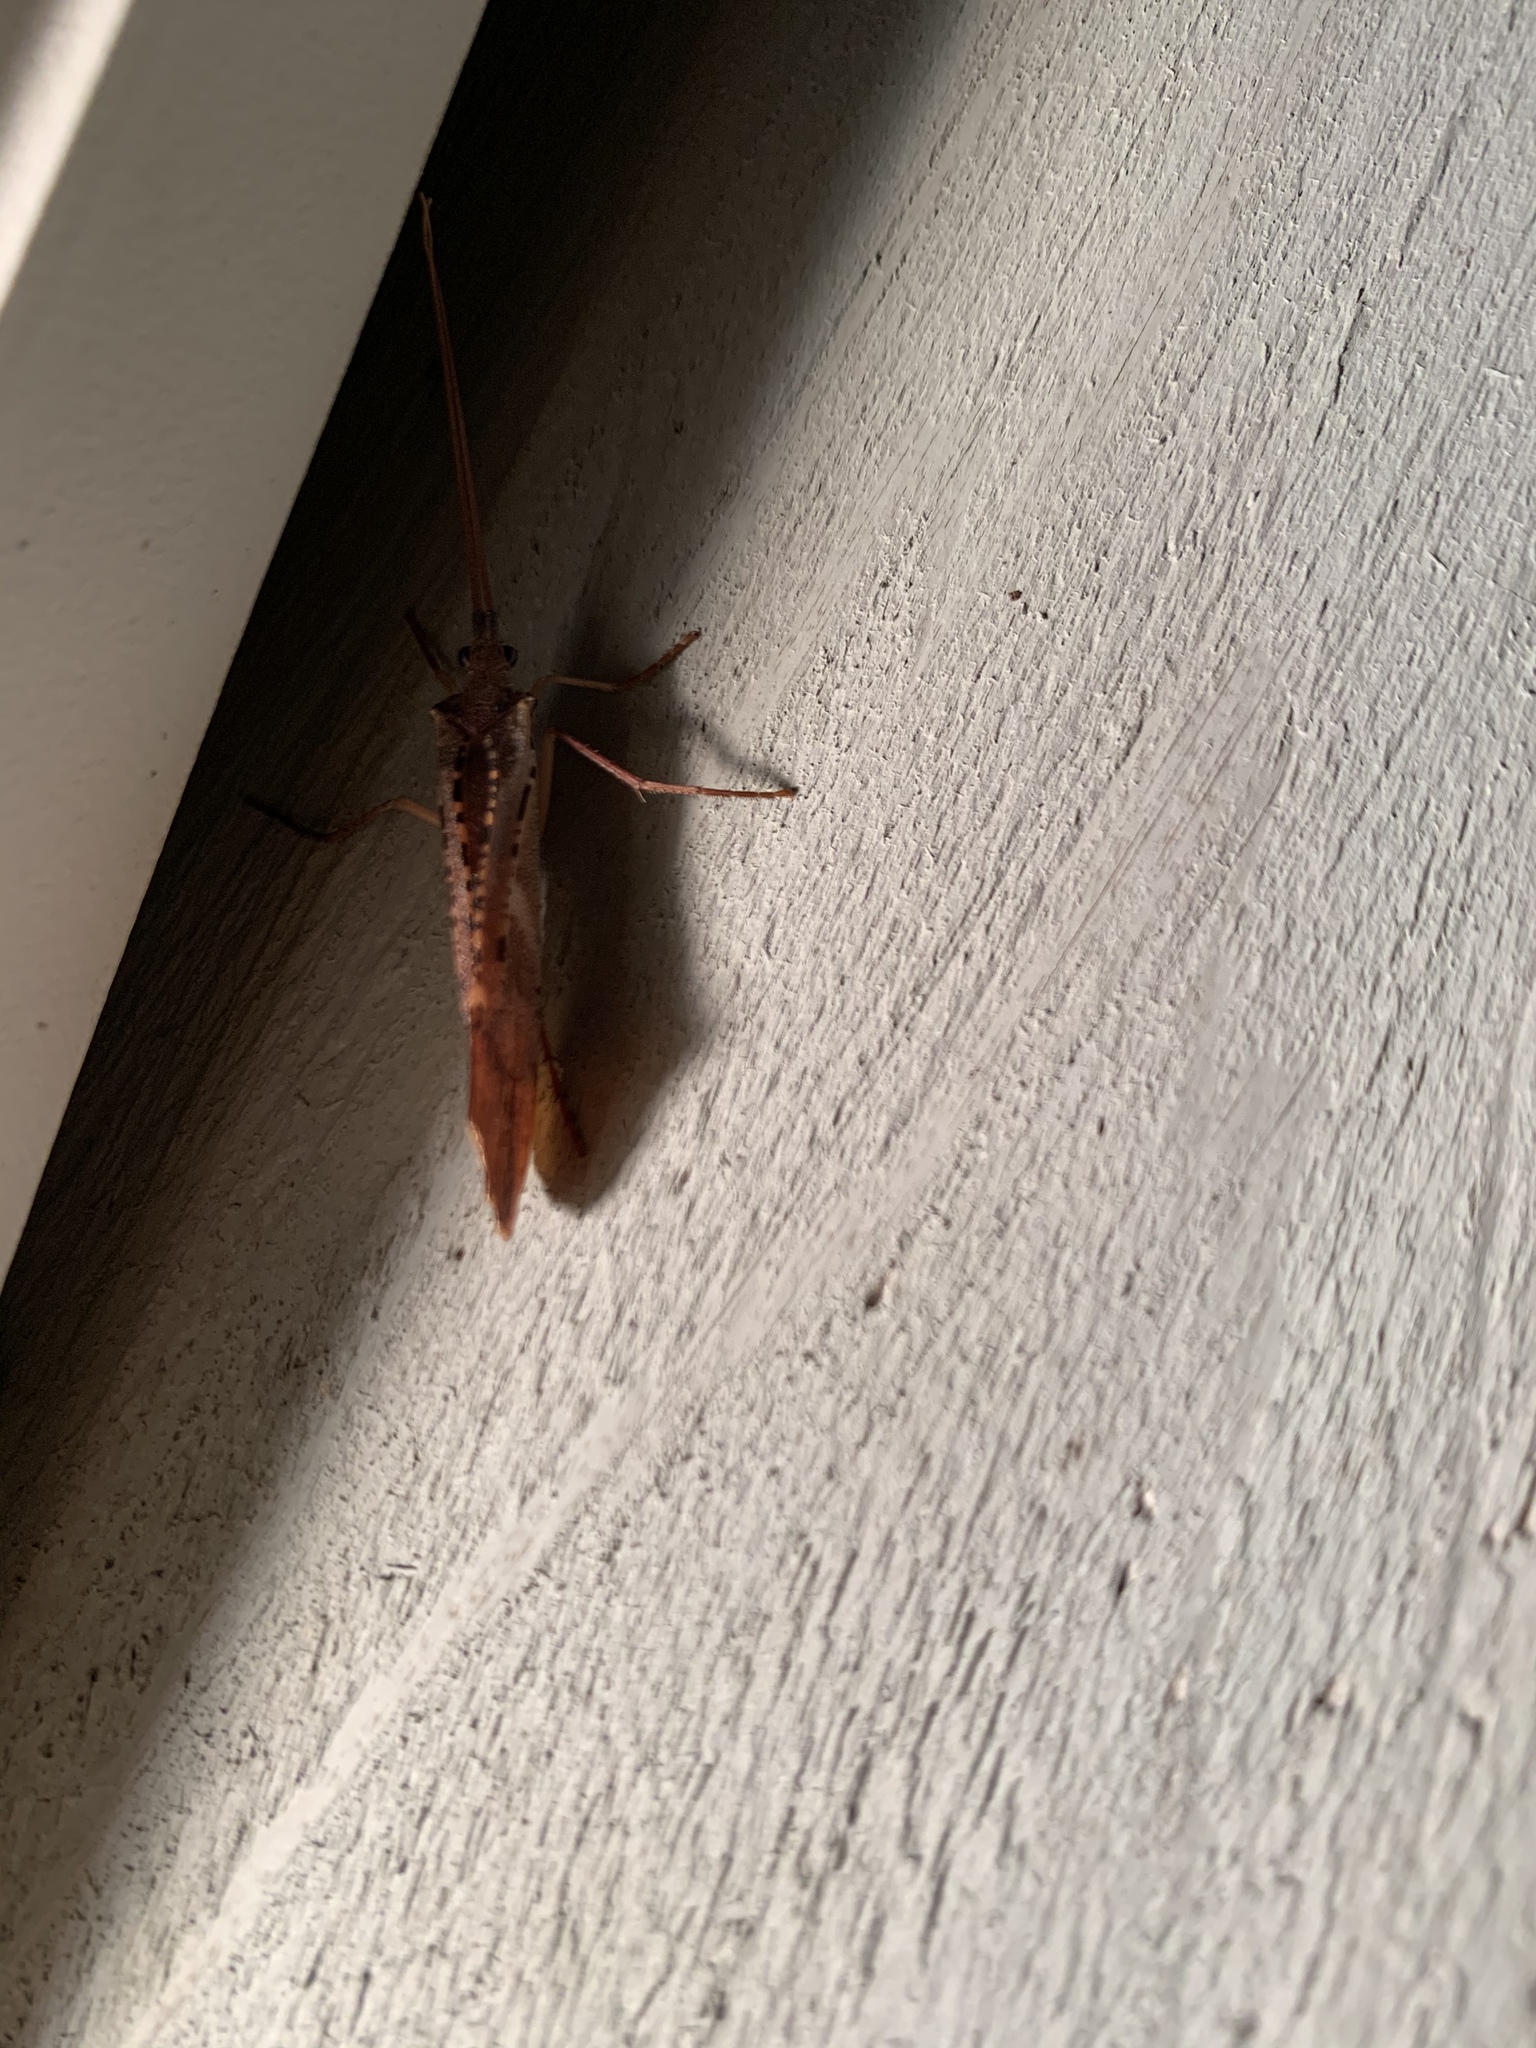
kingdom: Animalia
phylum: Arthropoda
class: Insecta
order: Trichoptera
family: Limnephilidae
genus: Nemotaulius
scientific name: Nemotaulius hostilis
